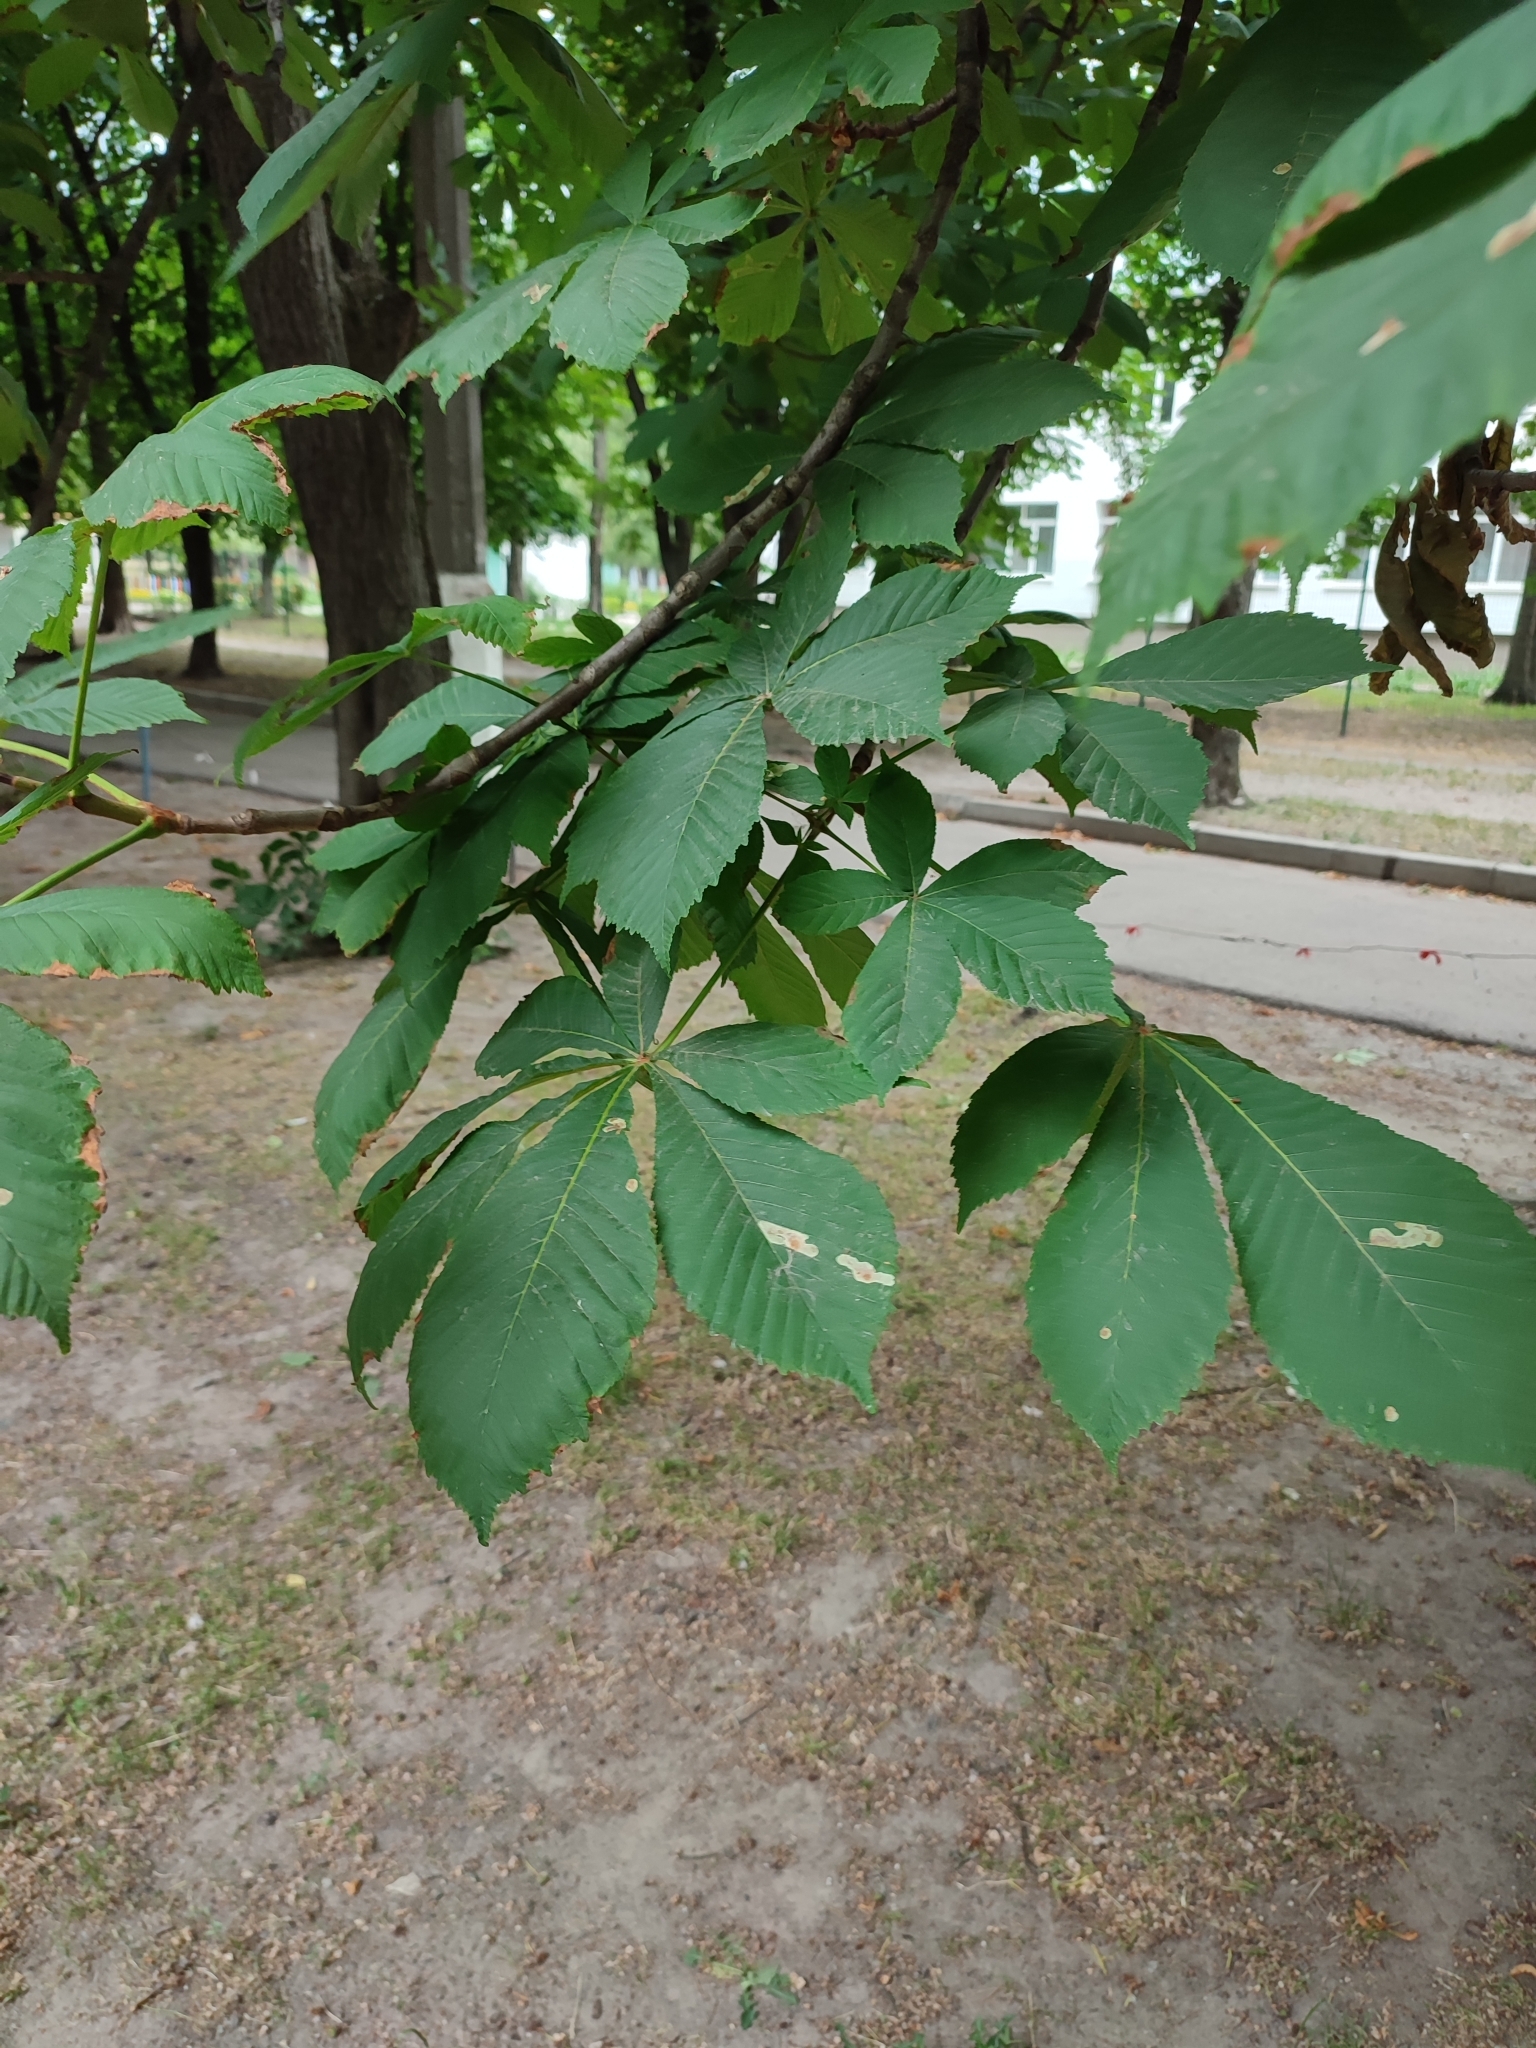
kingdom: Animalia
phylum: Arthropoda
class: Insecta
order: Lepidoptera
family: Gracillariidae
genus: Cameraria
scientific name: Cameraria ohridella
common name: Horse-chestnut leaf-miner
